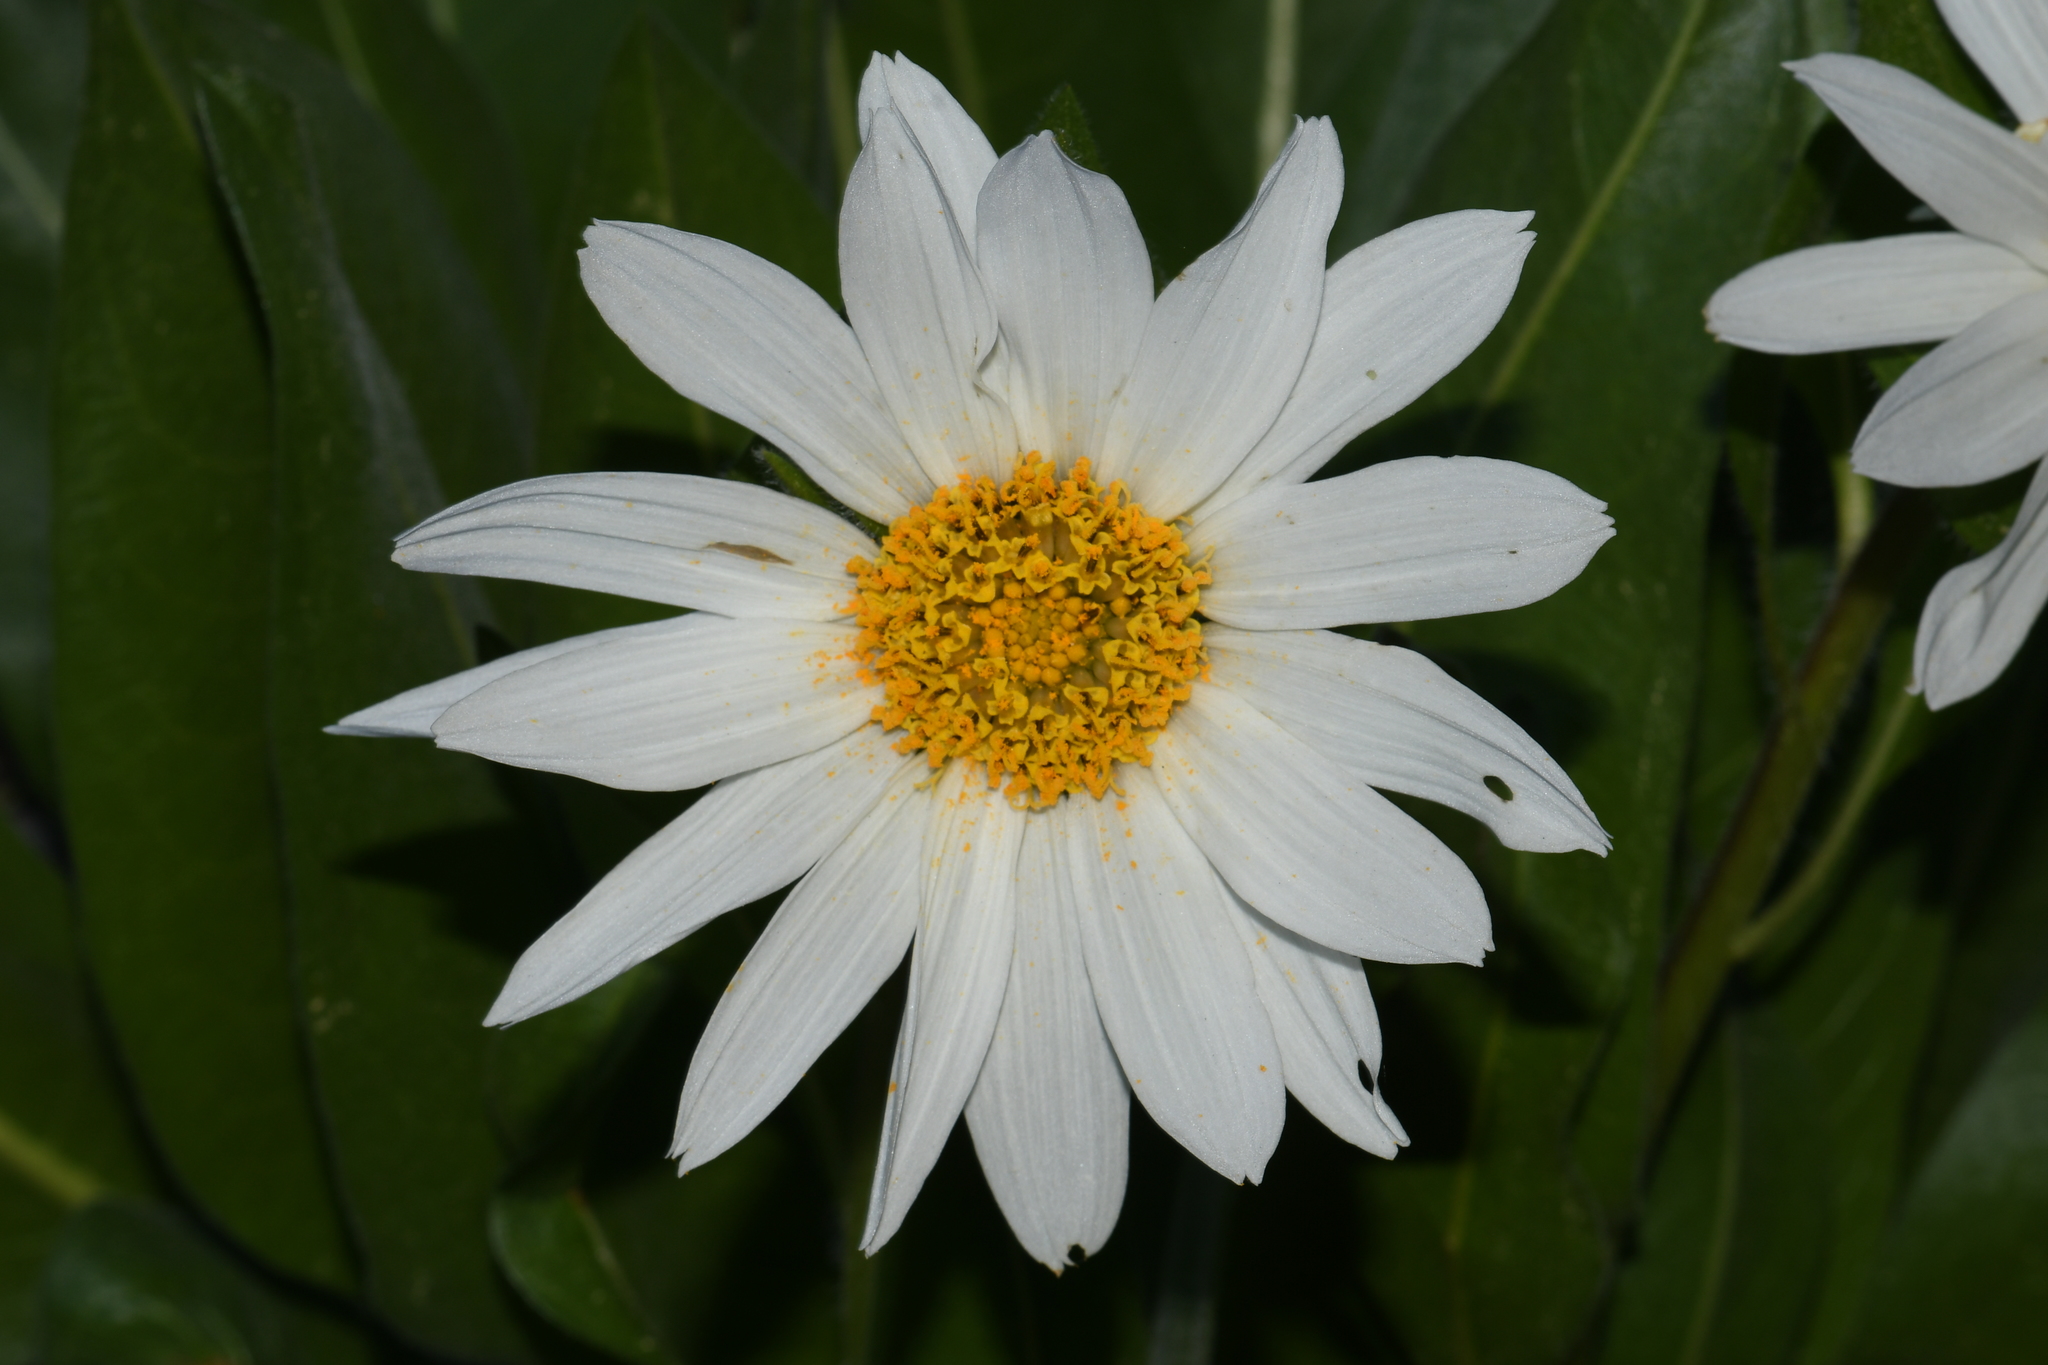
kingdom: Plantae
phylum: Tracheophyta
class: Magnoliopsida
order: Asterales
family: Asteraceae
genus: Wyethia
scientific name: Wyethia helianthoides
